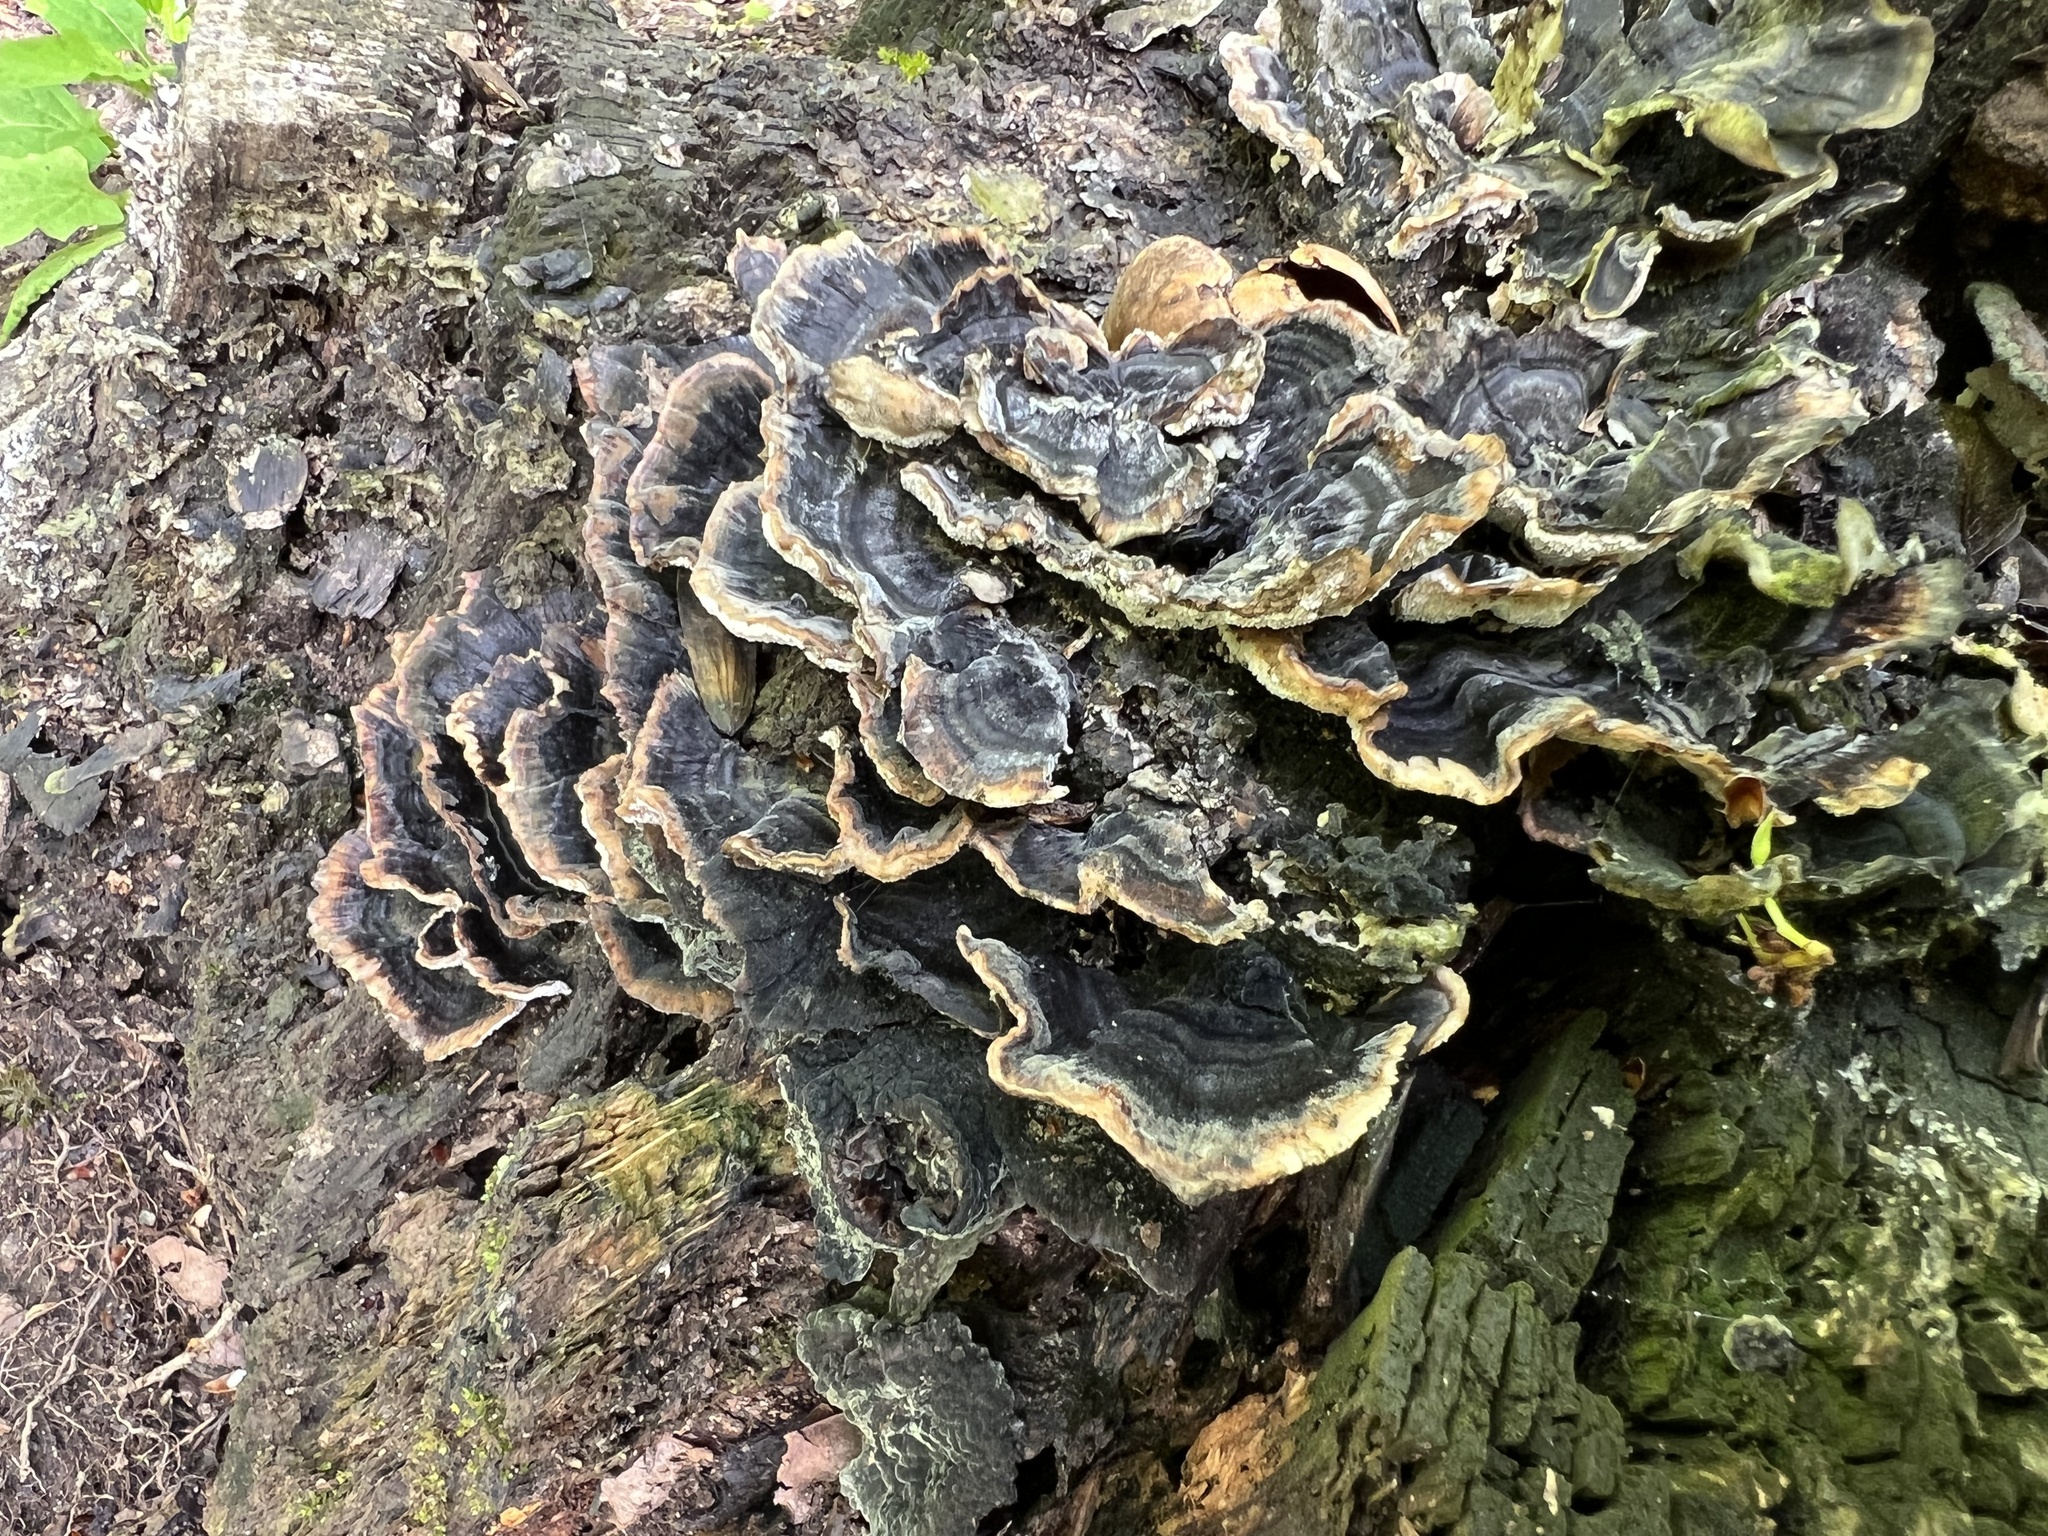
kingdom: Fungi
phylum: Basidiomycota
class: Agaricomycetes
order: Polyporales
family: Polyporaceae
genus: Trametes
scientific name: Trametes versicolor
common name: Turkeytail
